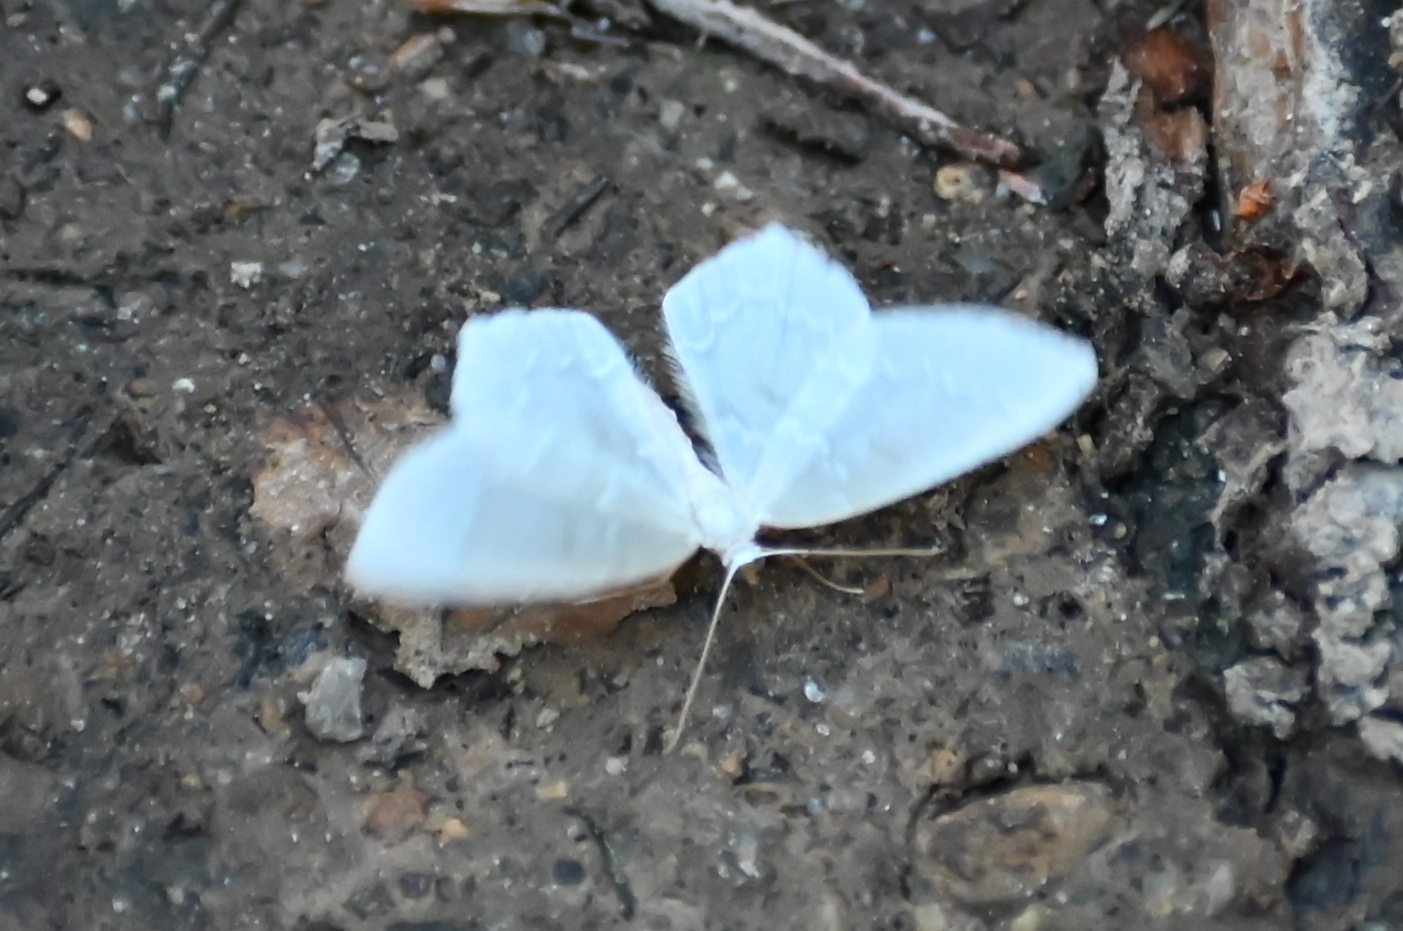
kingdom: Animalia
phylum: Arthropoda
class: Insecta
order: Lepidoptera
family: Geometridae
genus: Jodis
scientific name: Jodis putata
